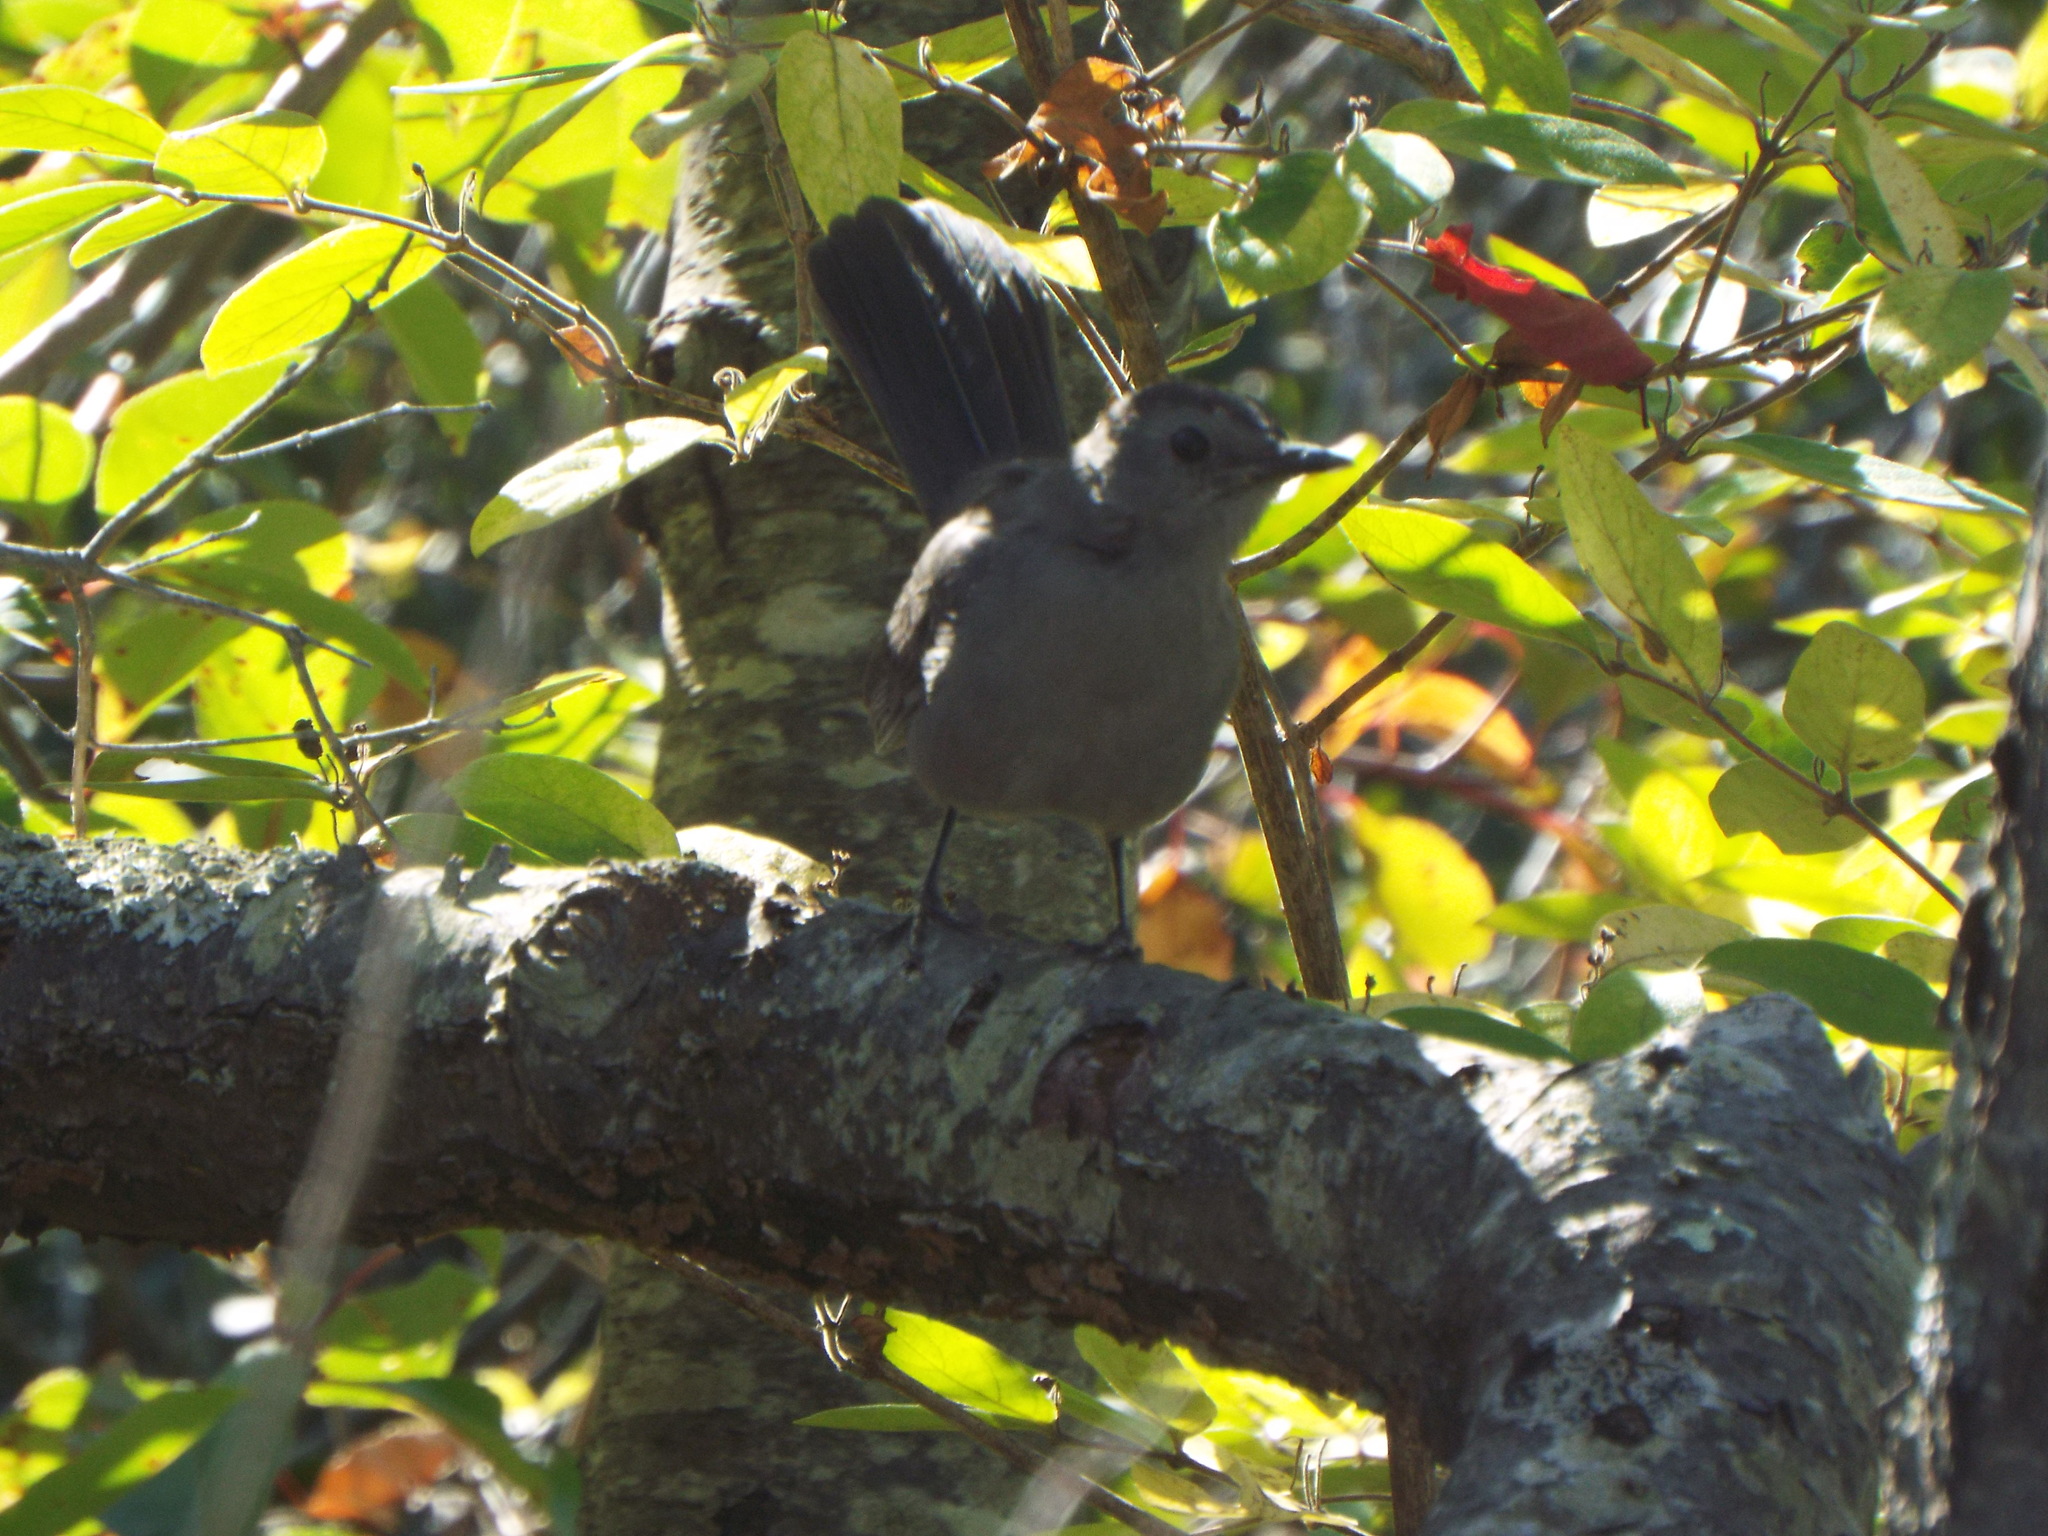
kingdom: Animalia
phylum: Chordata
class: Aves
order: Passeriformes
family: Mimidae
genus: Dumetella
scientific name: Dumetella carolinensis
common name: Gray catbird
